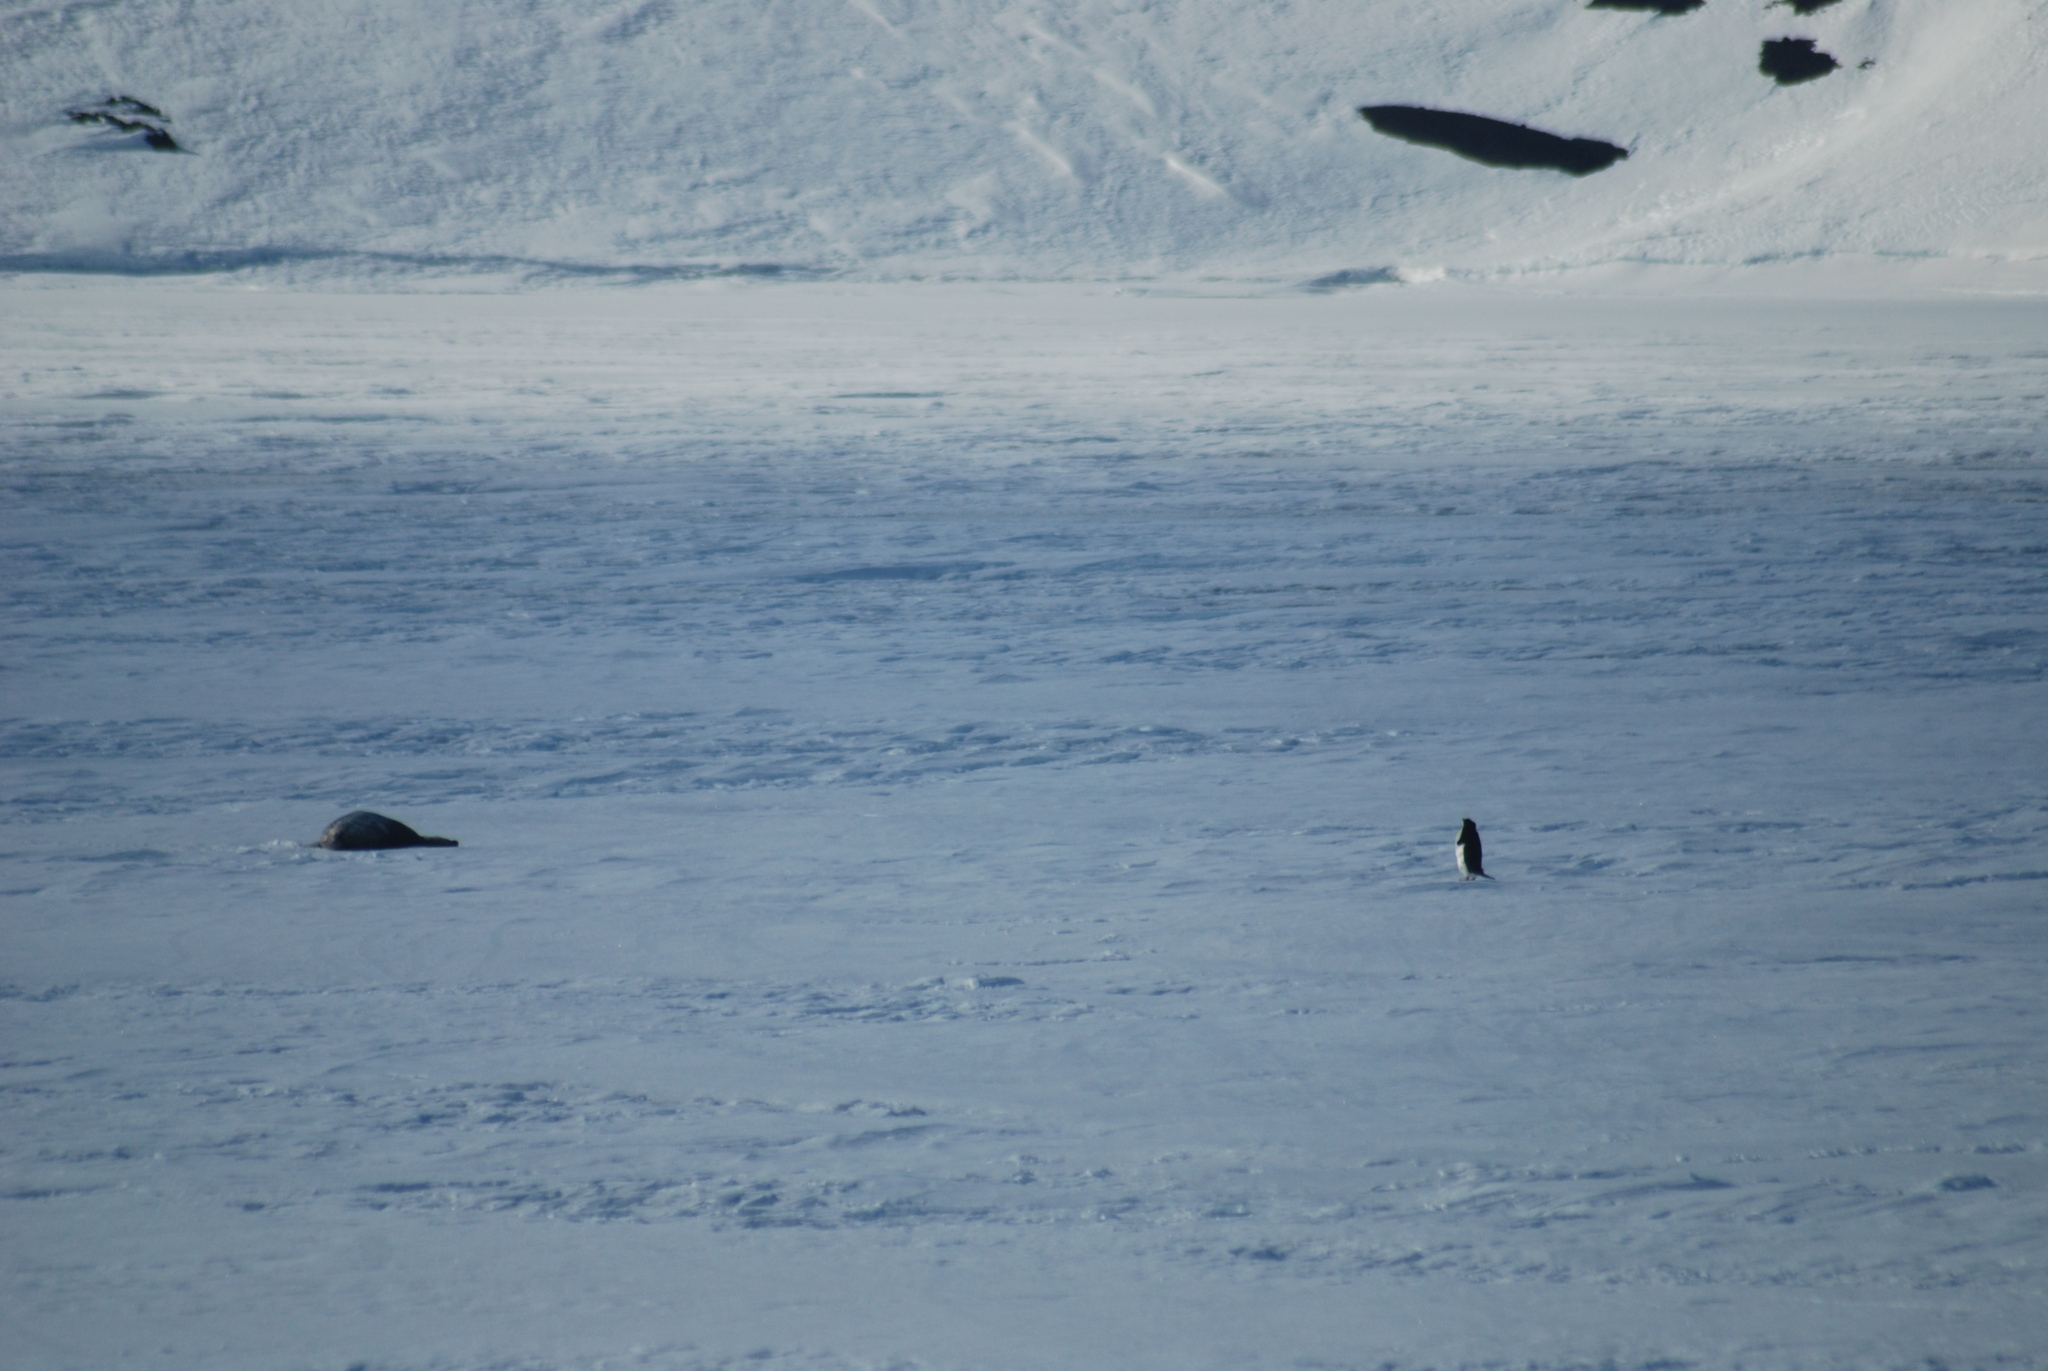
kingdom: Animalia
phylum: Chordata
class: Mammalia
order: Carnivora
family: Phocidae
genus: Leptonychotes
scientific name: Leptonychotes weddellii
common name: Weddell seal
